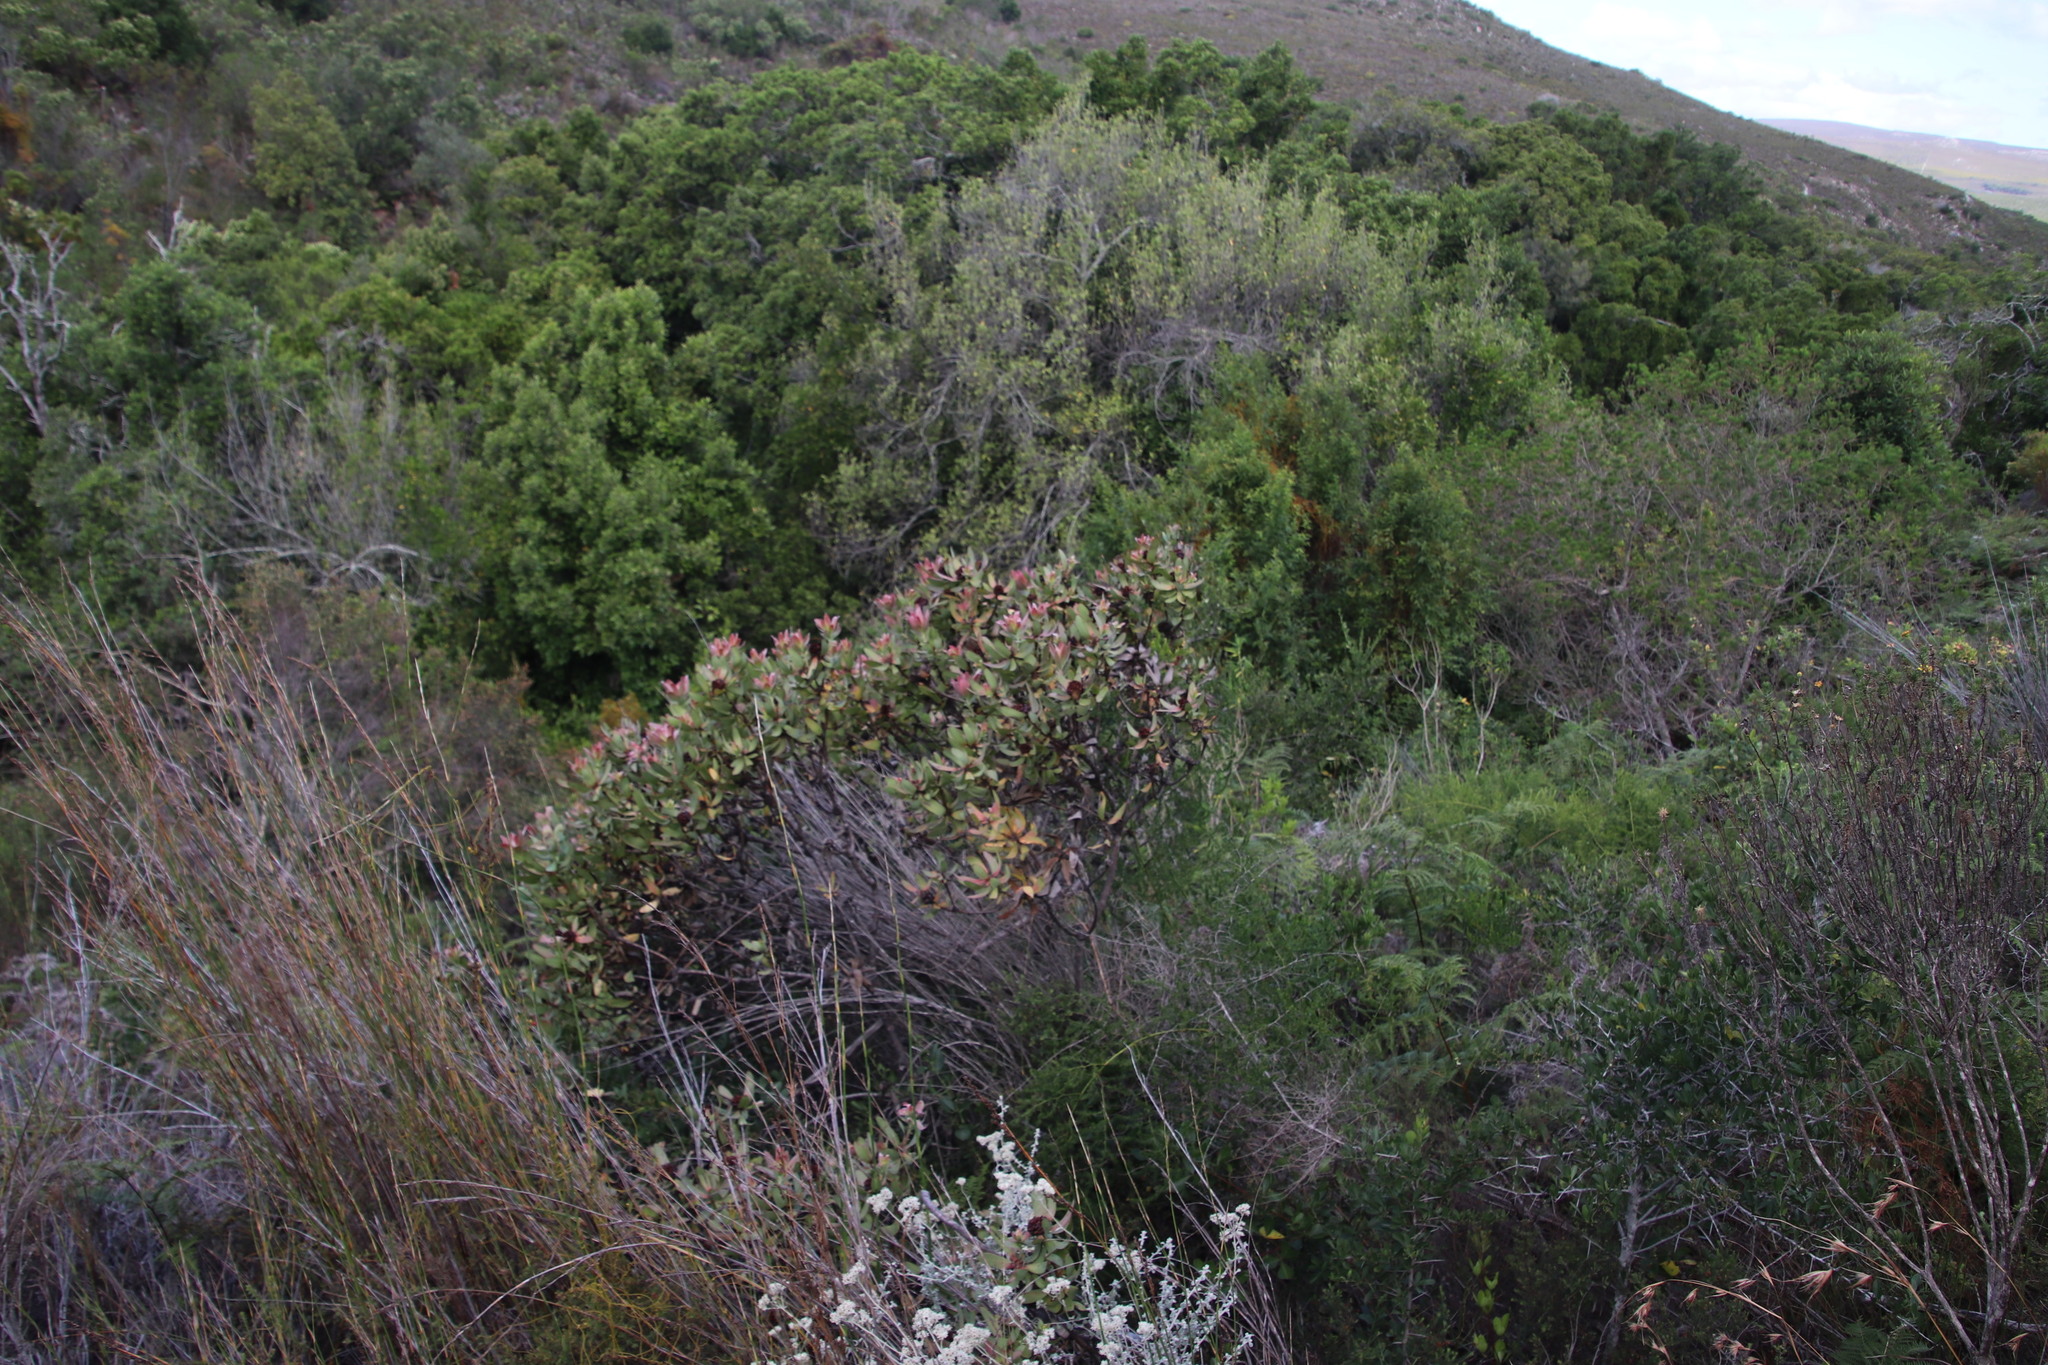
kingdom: Plantae
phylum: Tracheophyta
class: Magnoliopsida
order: Proteales
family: Proteaceae
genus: Leucadendron
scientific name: Leucadendron tinctum
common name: Spicy conebush
